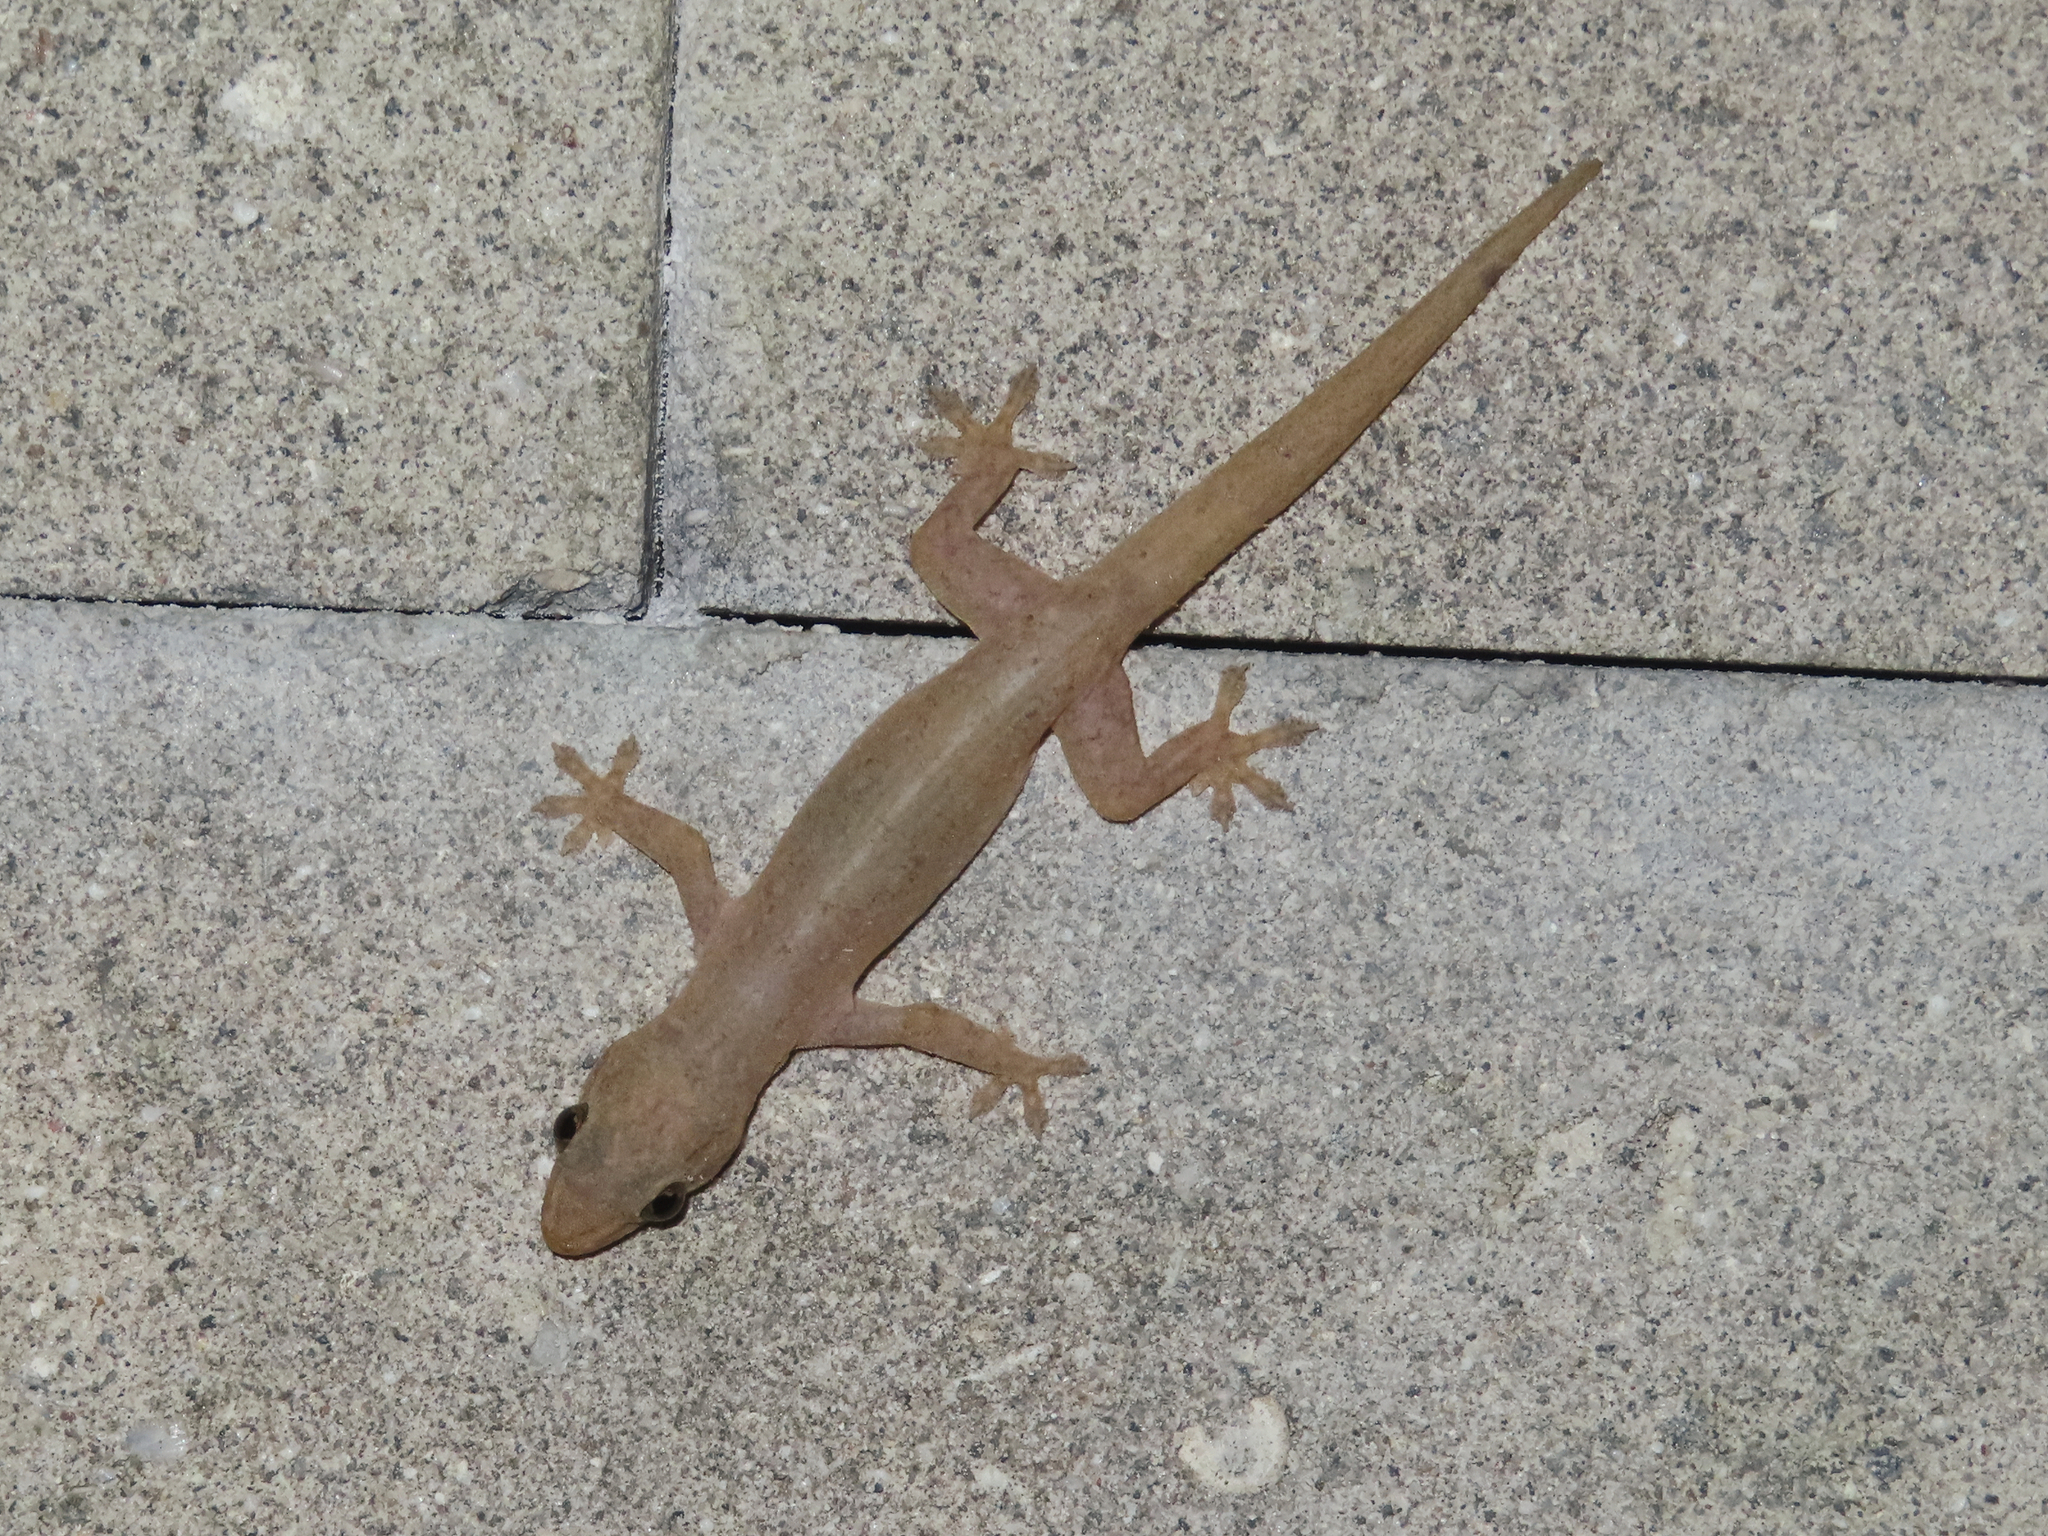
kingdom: Animalia
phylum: Chordata
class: Squamata
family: Gekkonidae
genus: Hemidactylus
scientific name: Hemidactylus frenatus
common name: Common house gecko
